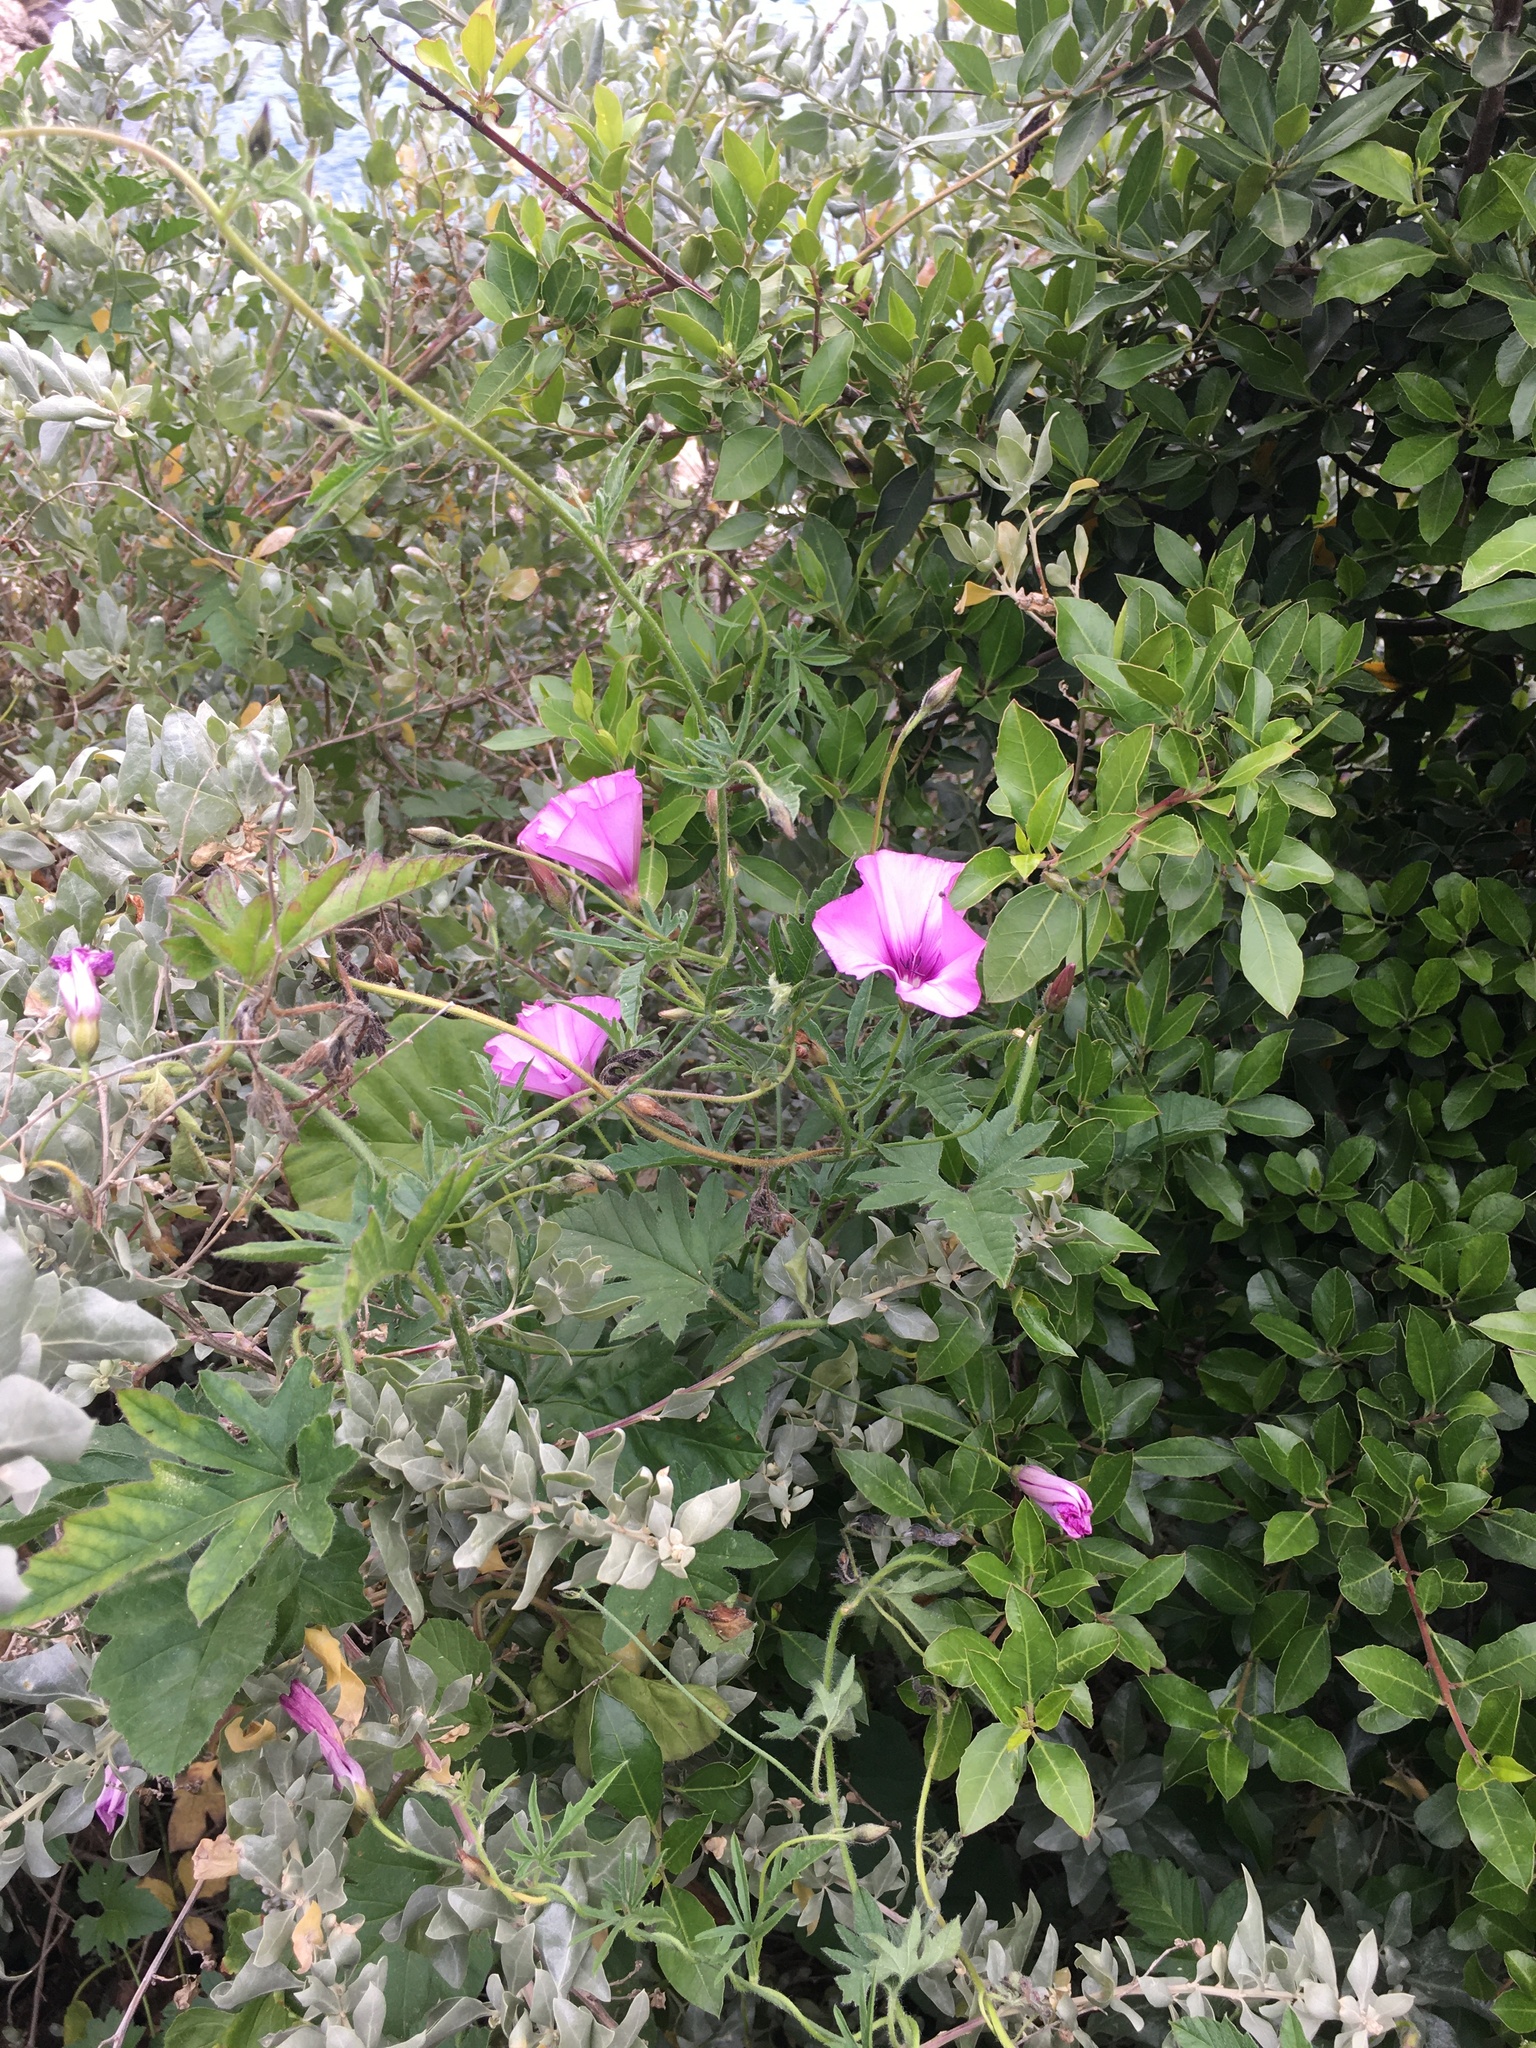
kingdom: Plantae
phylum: Tracheophyta
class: Magnoliopsida
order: Solanales
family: Convolvulaceae
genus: Convolvulus
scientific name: Convolvulus althaeoides
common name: Mallow bindweed
